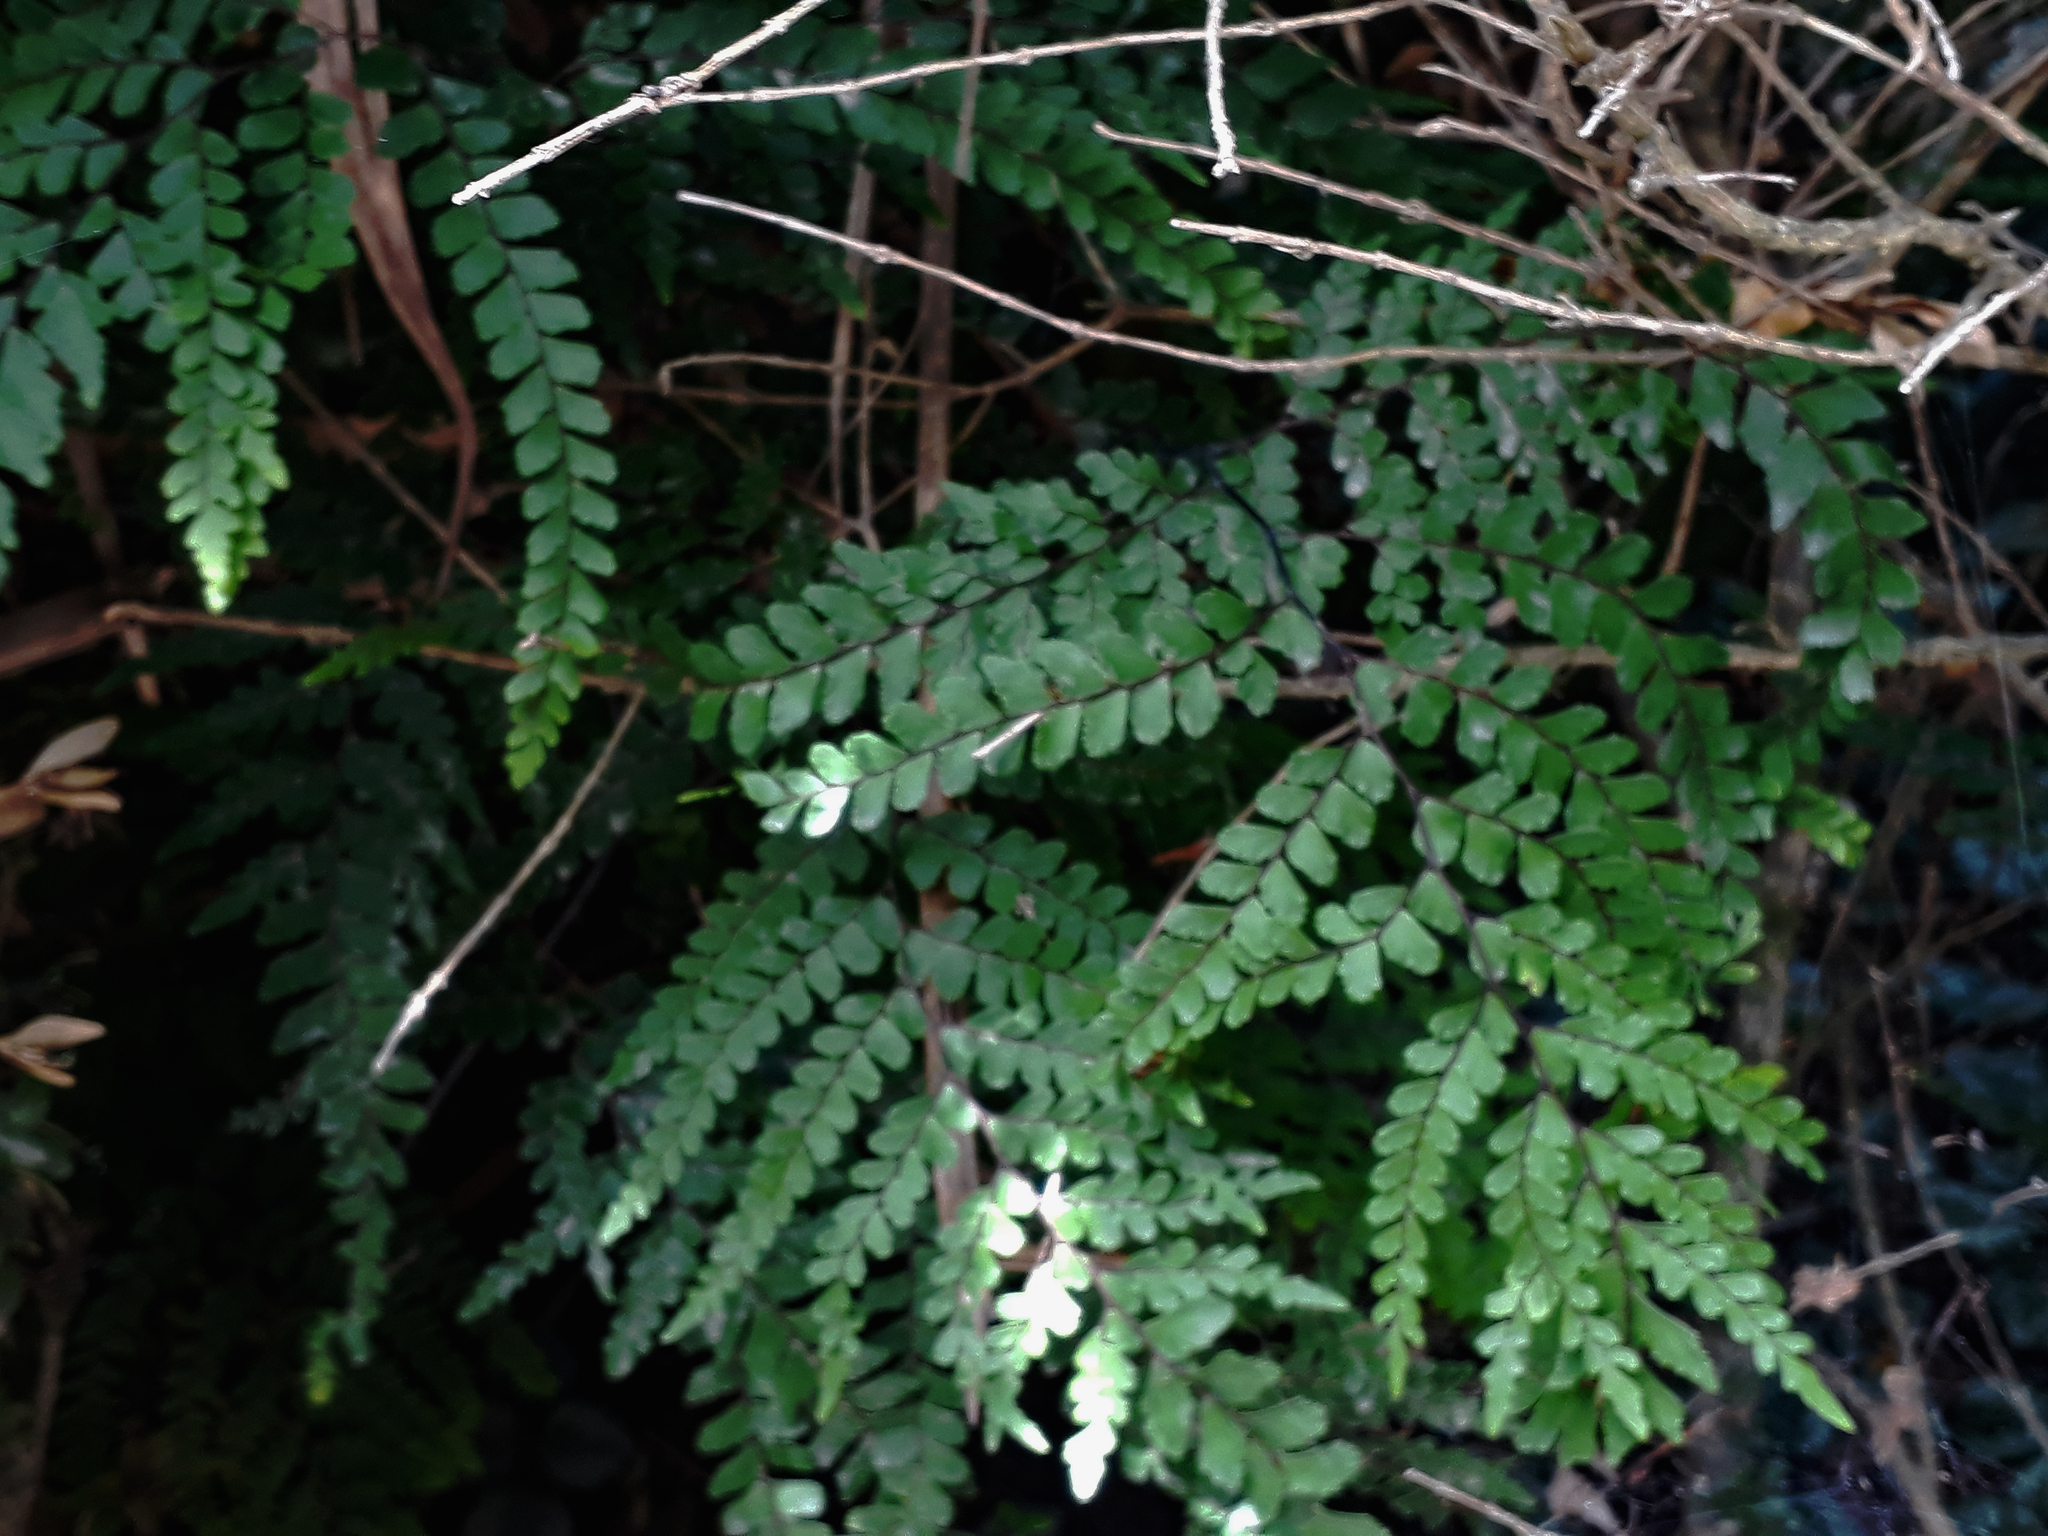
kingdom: Plantae
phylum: Tracheophyta
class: Polypodiopsida
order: Polypodiales
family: Pteridaceae
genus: Adiantum
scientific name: Adiantum formosum
